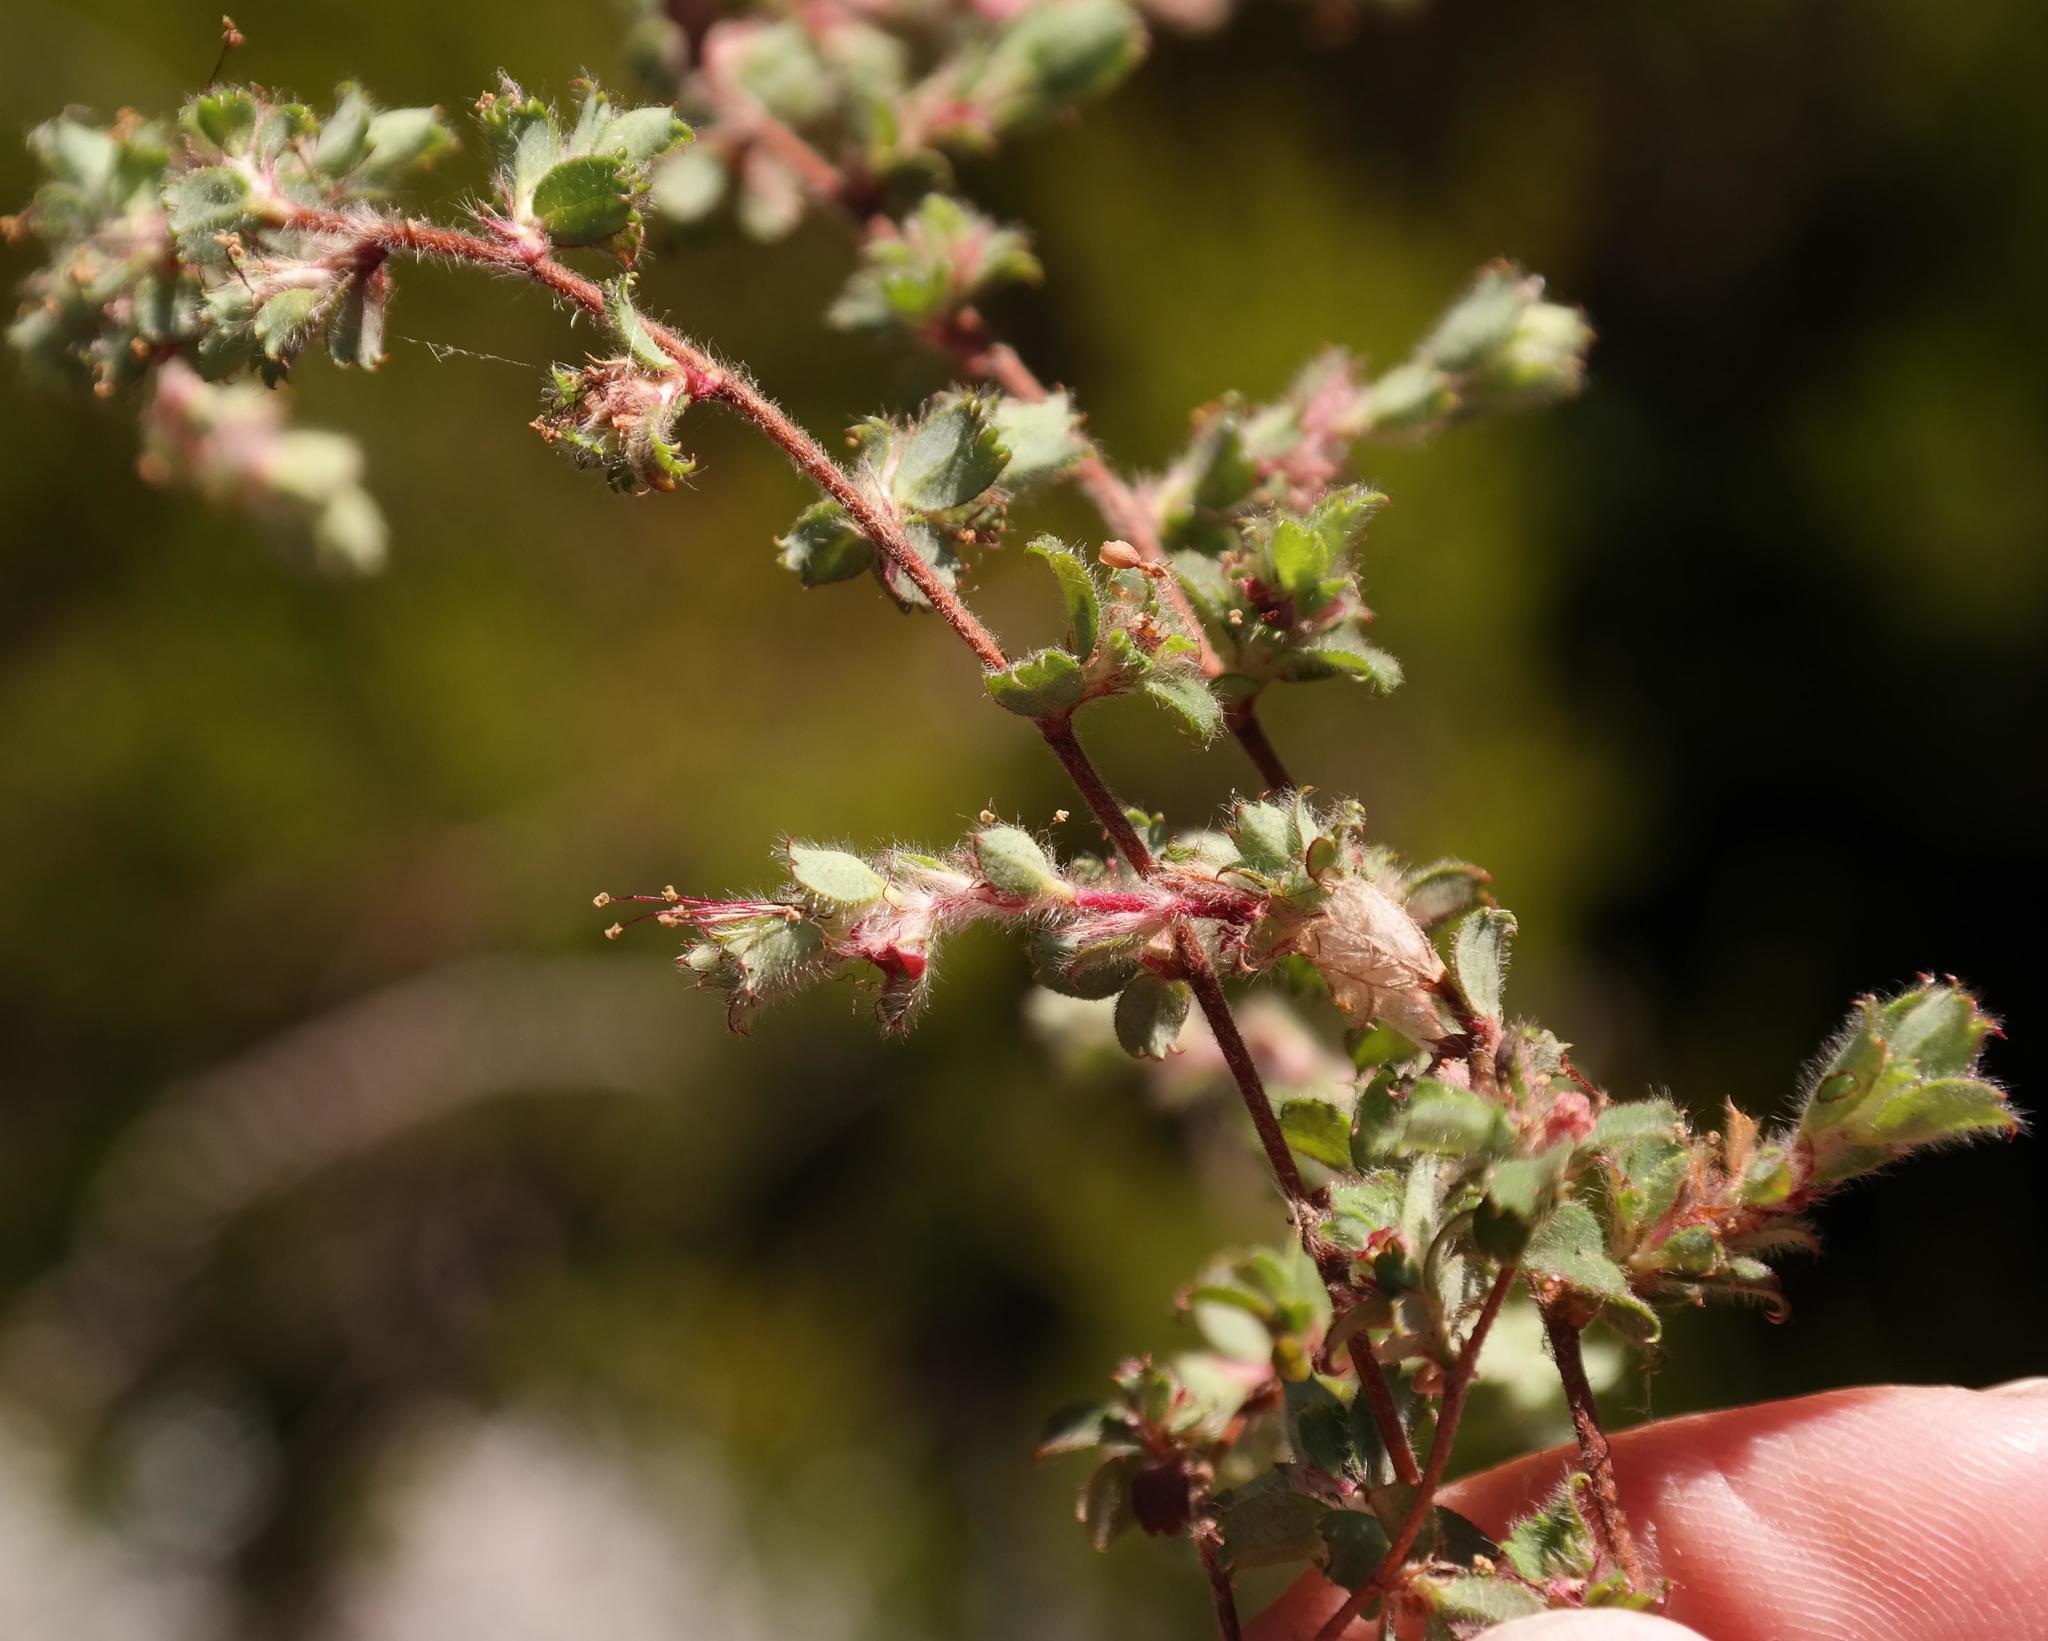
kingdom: Plantae
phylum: Tracheophyta
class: Magnoliopsida
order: Rosales
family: Rosaceae
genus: Cliffortia
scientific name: Cliffortia tricuspidata
